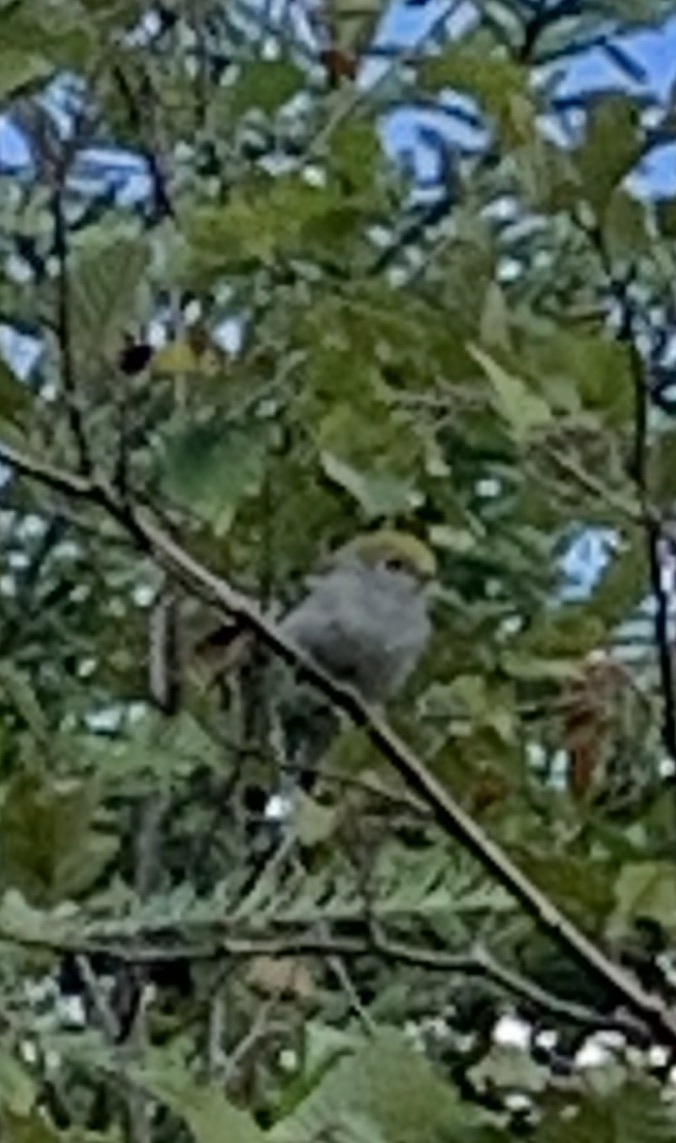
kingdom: Animalia
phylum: Chordata
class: Aves
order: Passeriformes
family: Parulidae
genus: Setophaga
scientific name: Setophaga pensylvanica
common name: Chestnut-sided warbler
